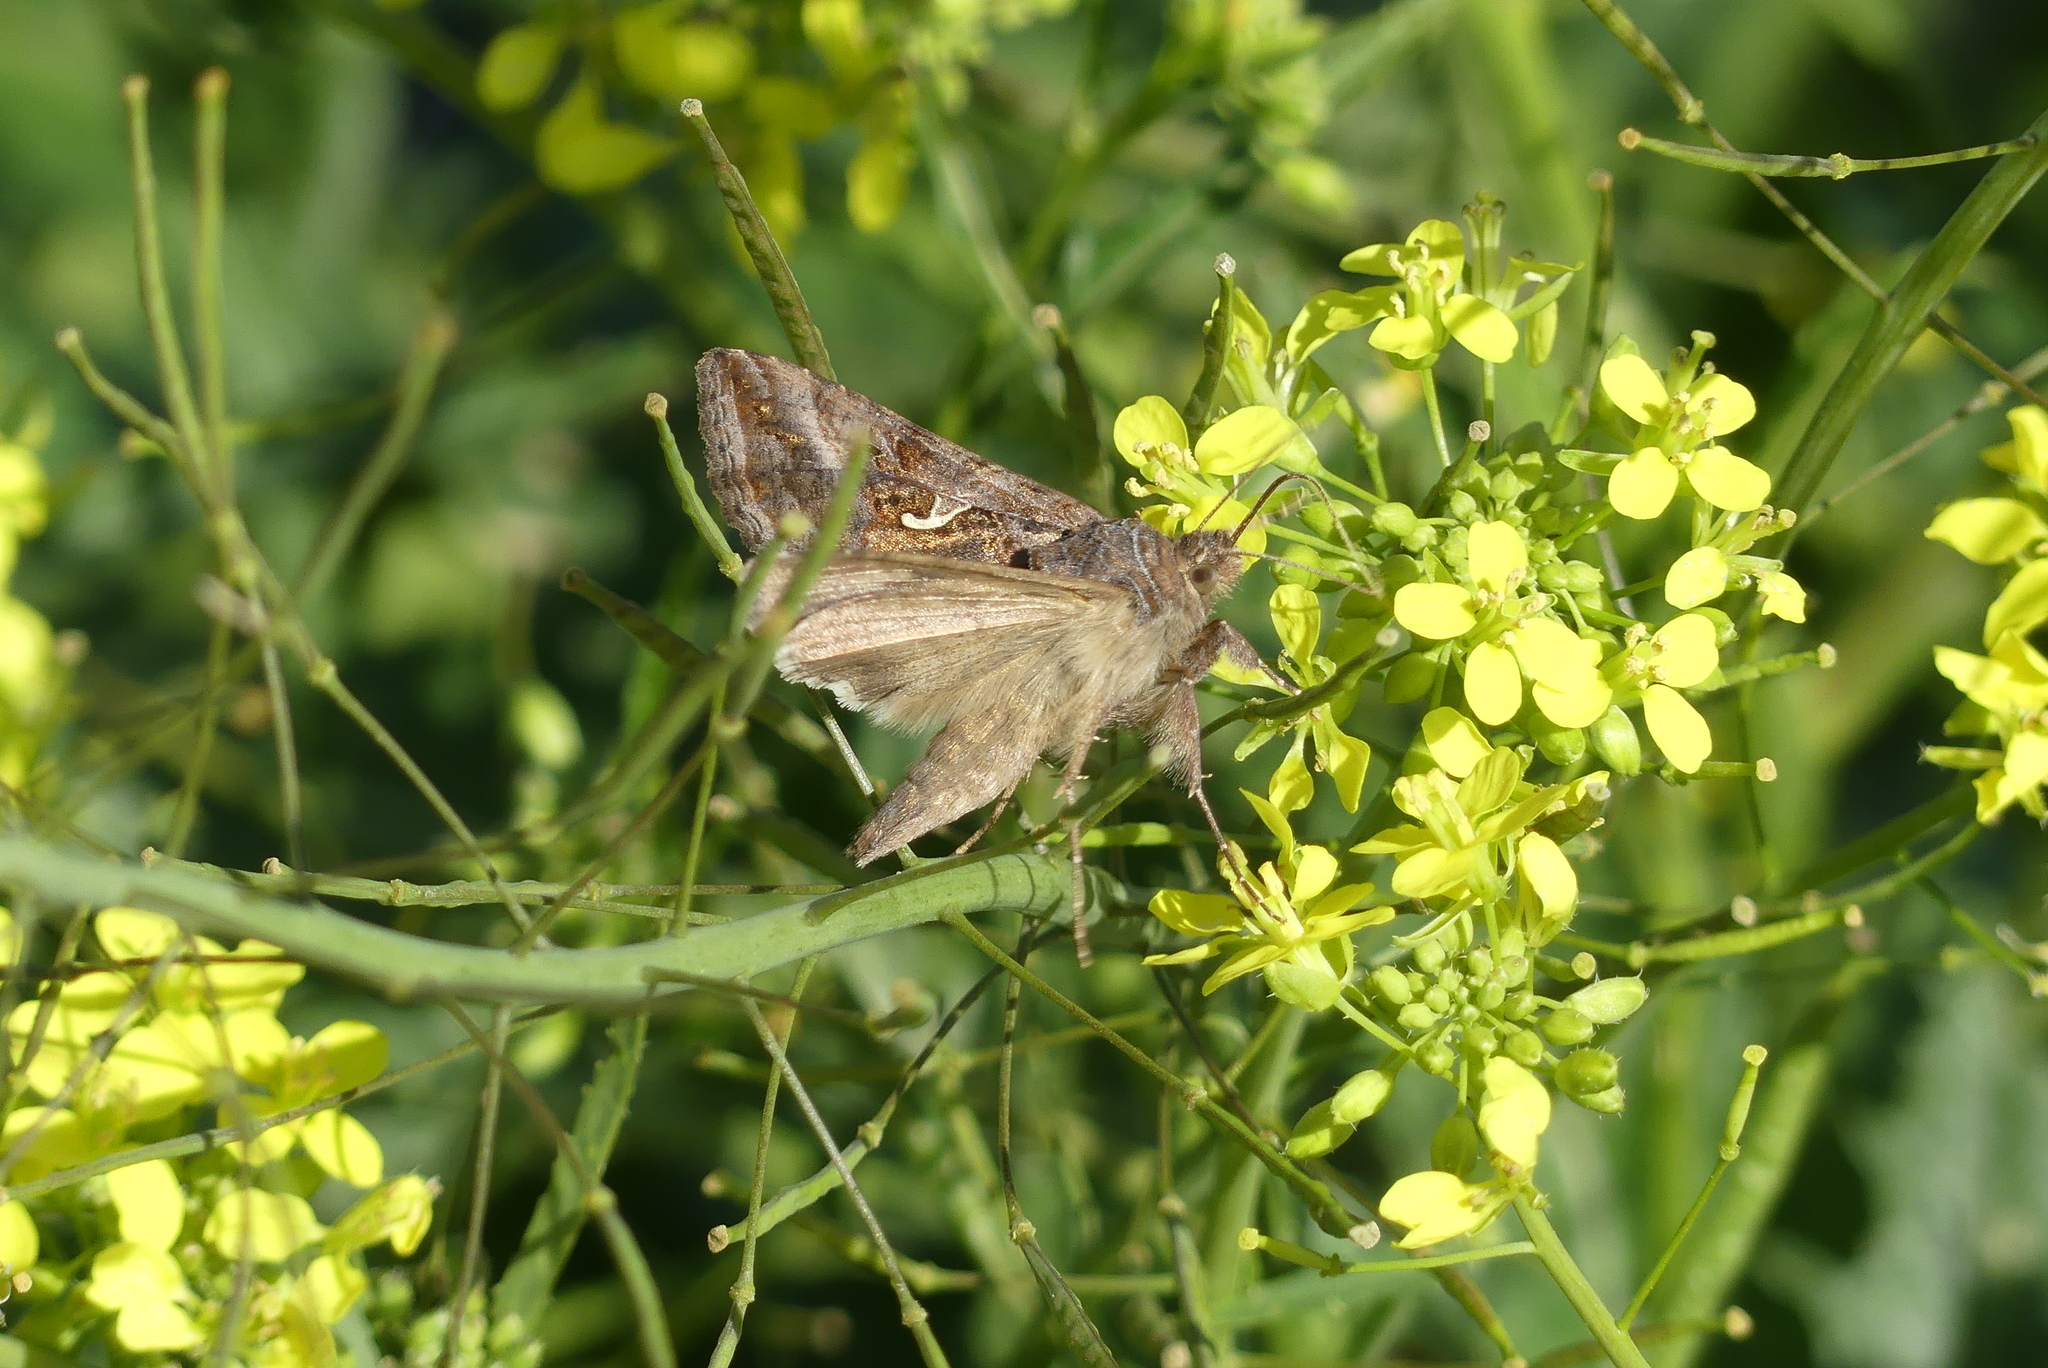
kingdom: Animalia
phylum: Arthropoda
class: Insecta
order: Lepidoptera
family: Noctuidae
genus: Autographa
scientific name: Autographa gamma
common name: Silver y
